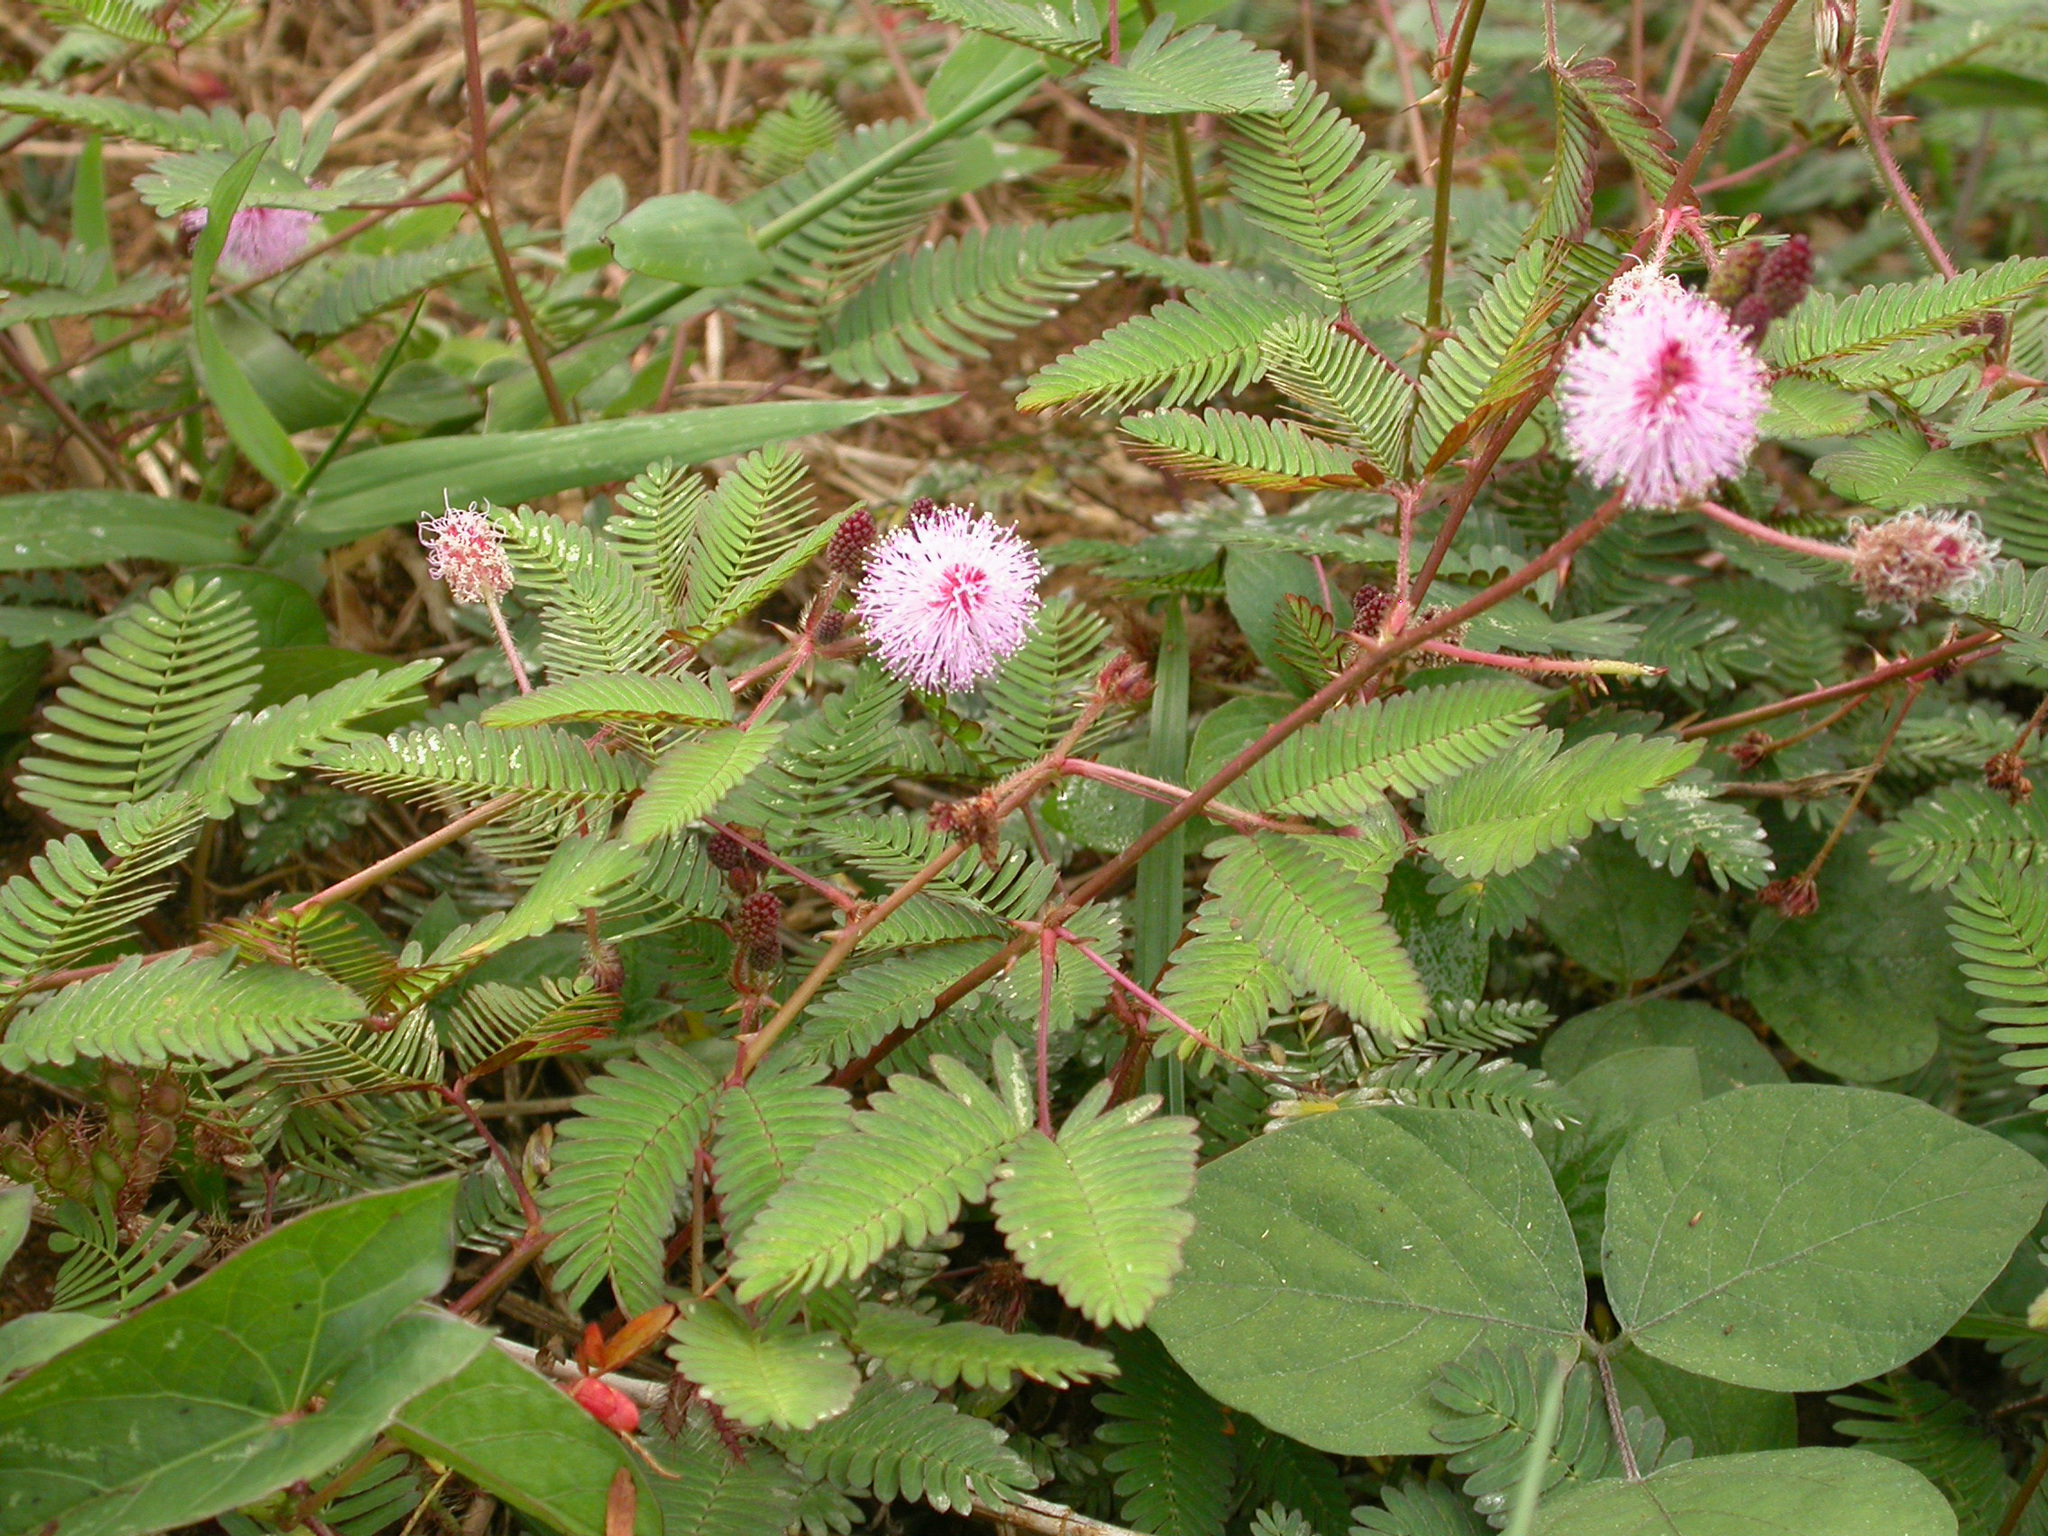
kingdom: Plantae
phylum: Tracheophyta
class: Magnoliopsida
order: Fabales
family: Fabaceae
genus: Mimosa
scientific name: Mimosa pudica
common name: Sensitive plant
